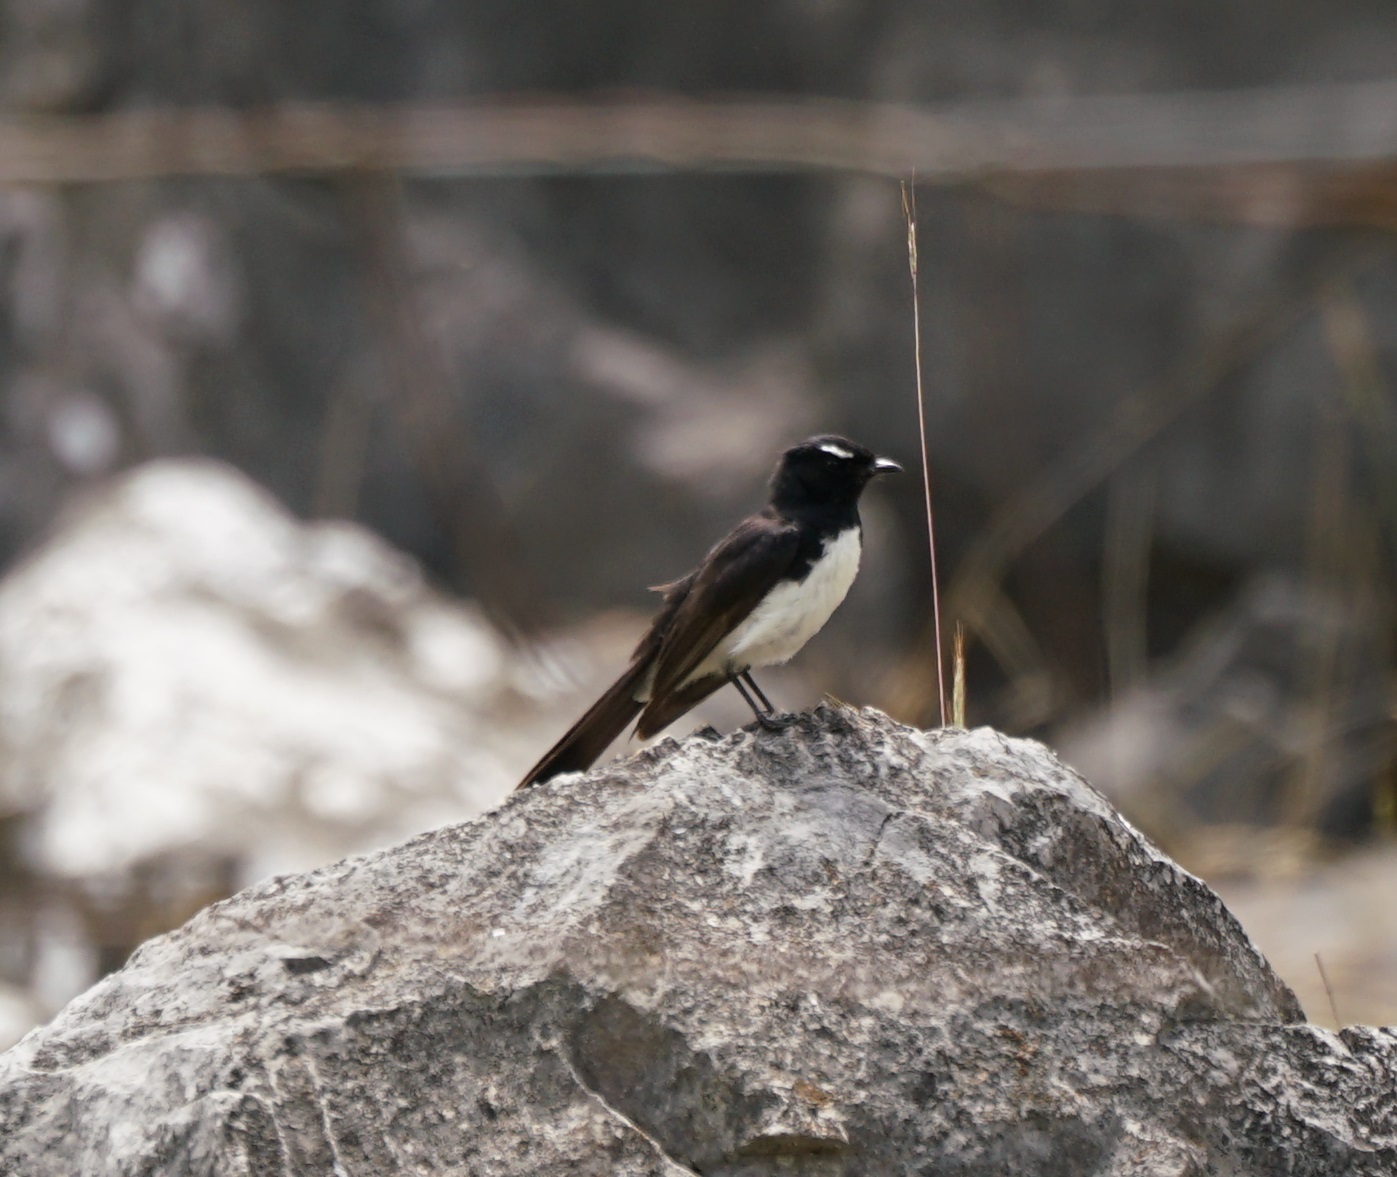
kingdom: Animalia
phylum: Chordata
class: Aves
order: Passeriformes
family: Rhipiduridae
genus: Rhipidura
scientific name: Rhipidura leucophrys
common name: Willie wagtail
